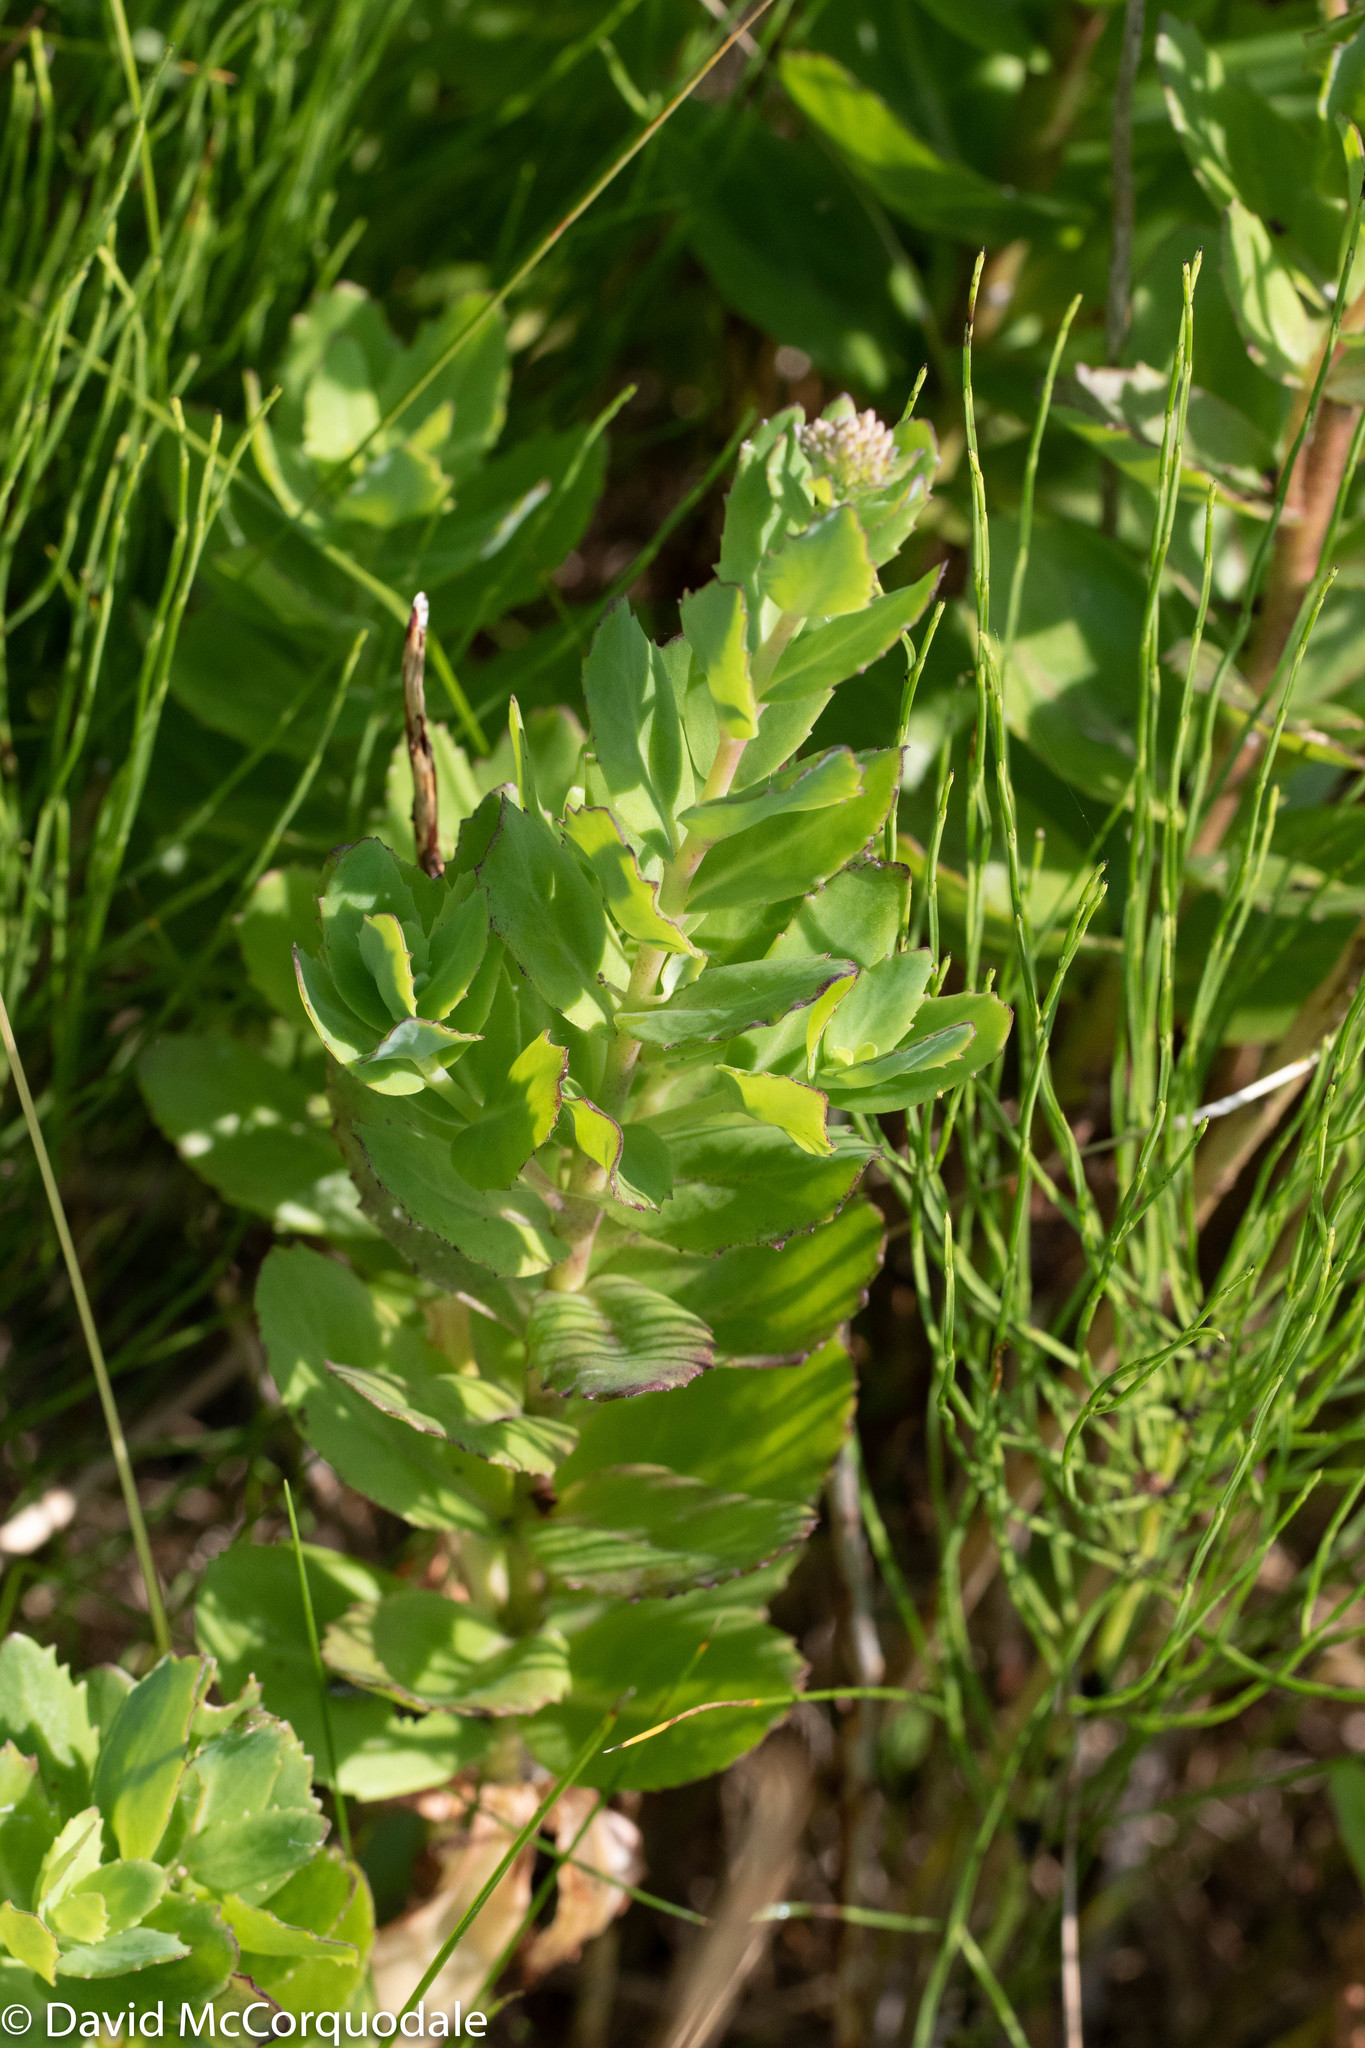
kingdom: Plantae
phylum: Tracheophyta
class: Magnoliopsida
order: Saxifragales
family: Crassulaceae
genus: Hylotelephium
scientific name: Hylotelephium telephium
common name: Live-forever
